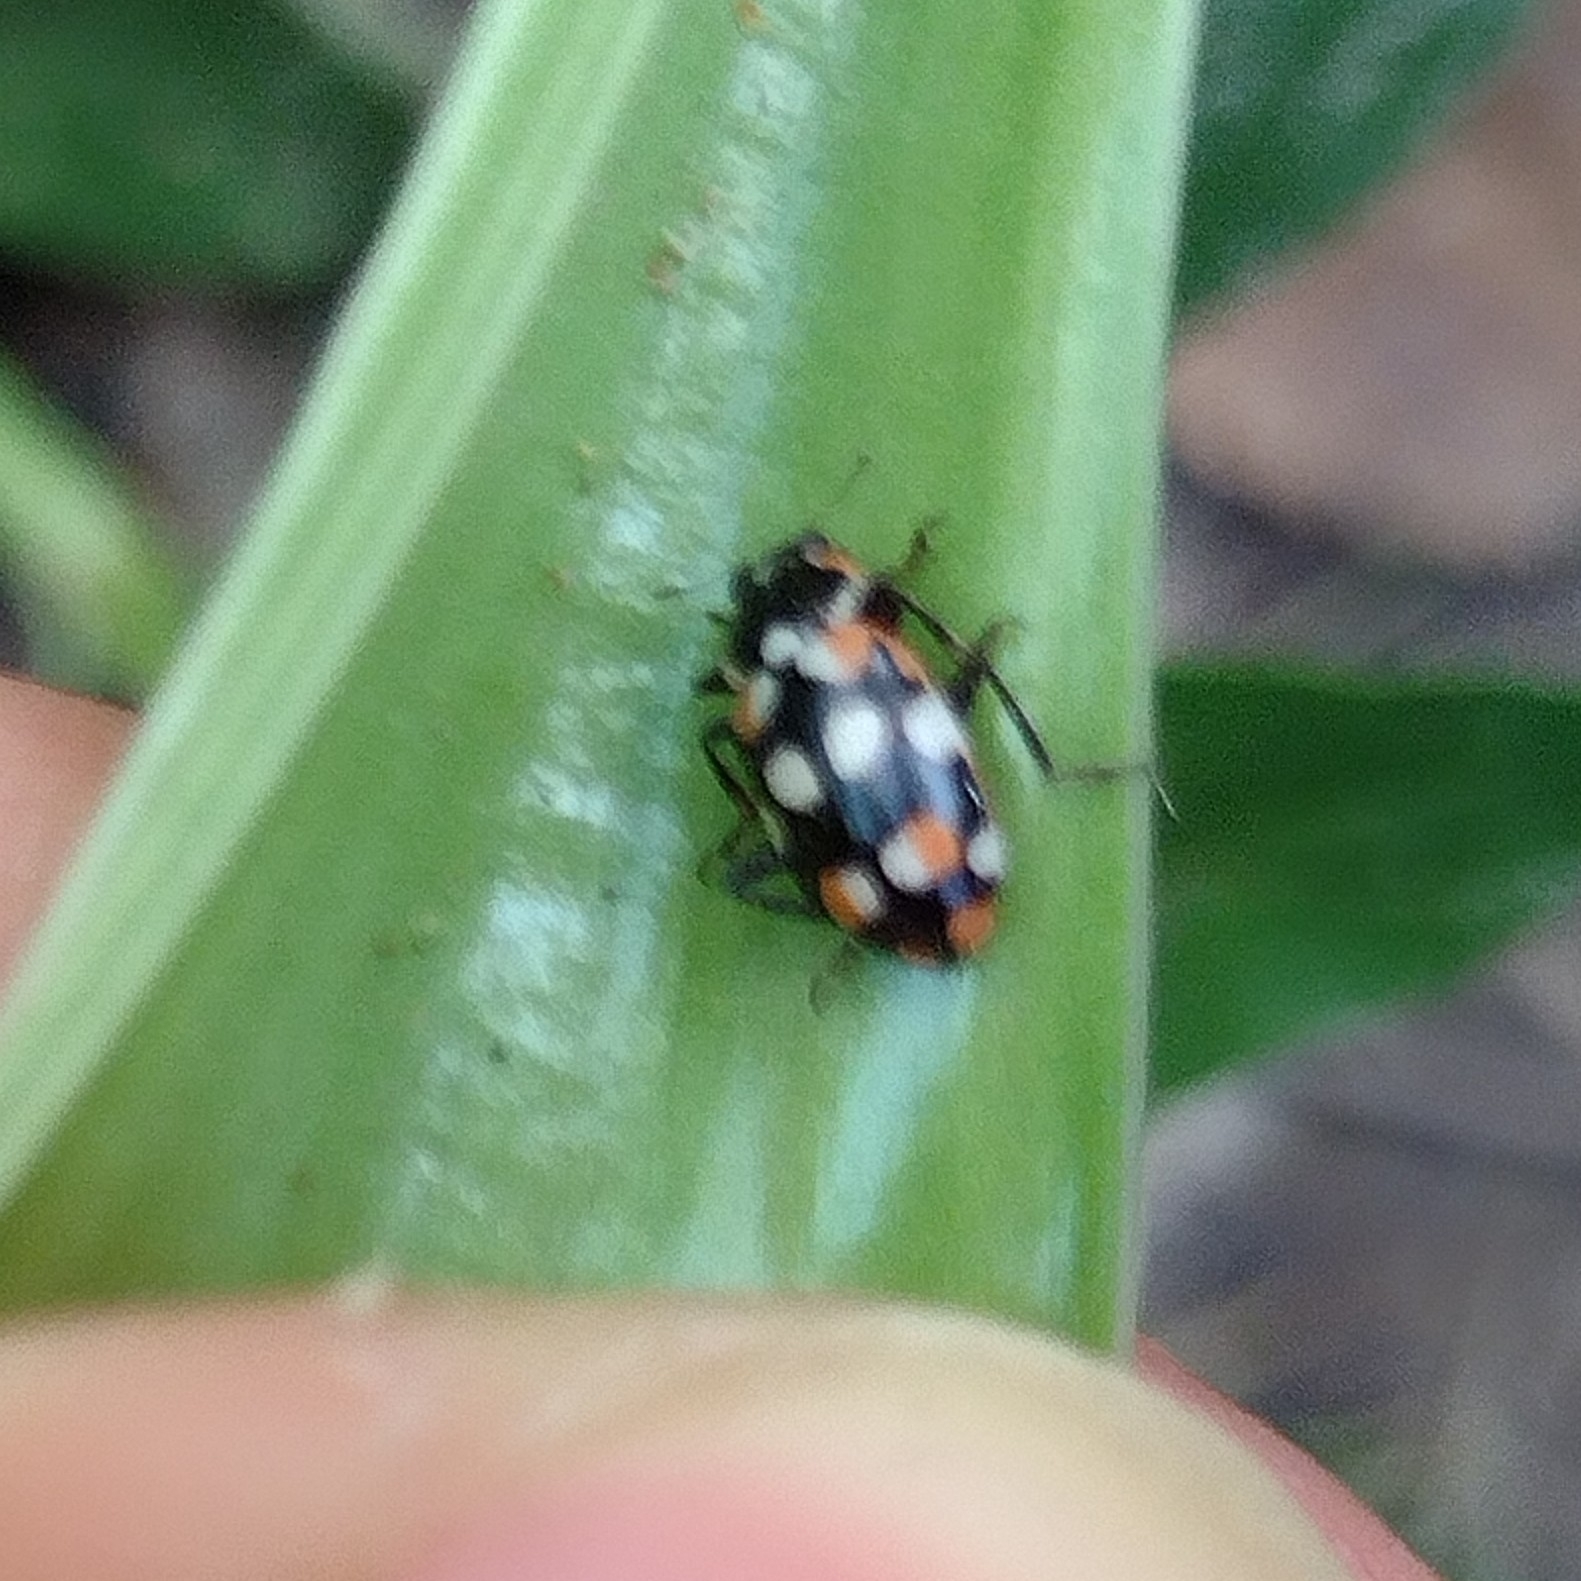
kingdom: Animalia
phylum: Arthropoda
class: Insecta
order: Coleoptera
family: Coccinellidae
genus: Eriopis
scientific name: Eriopis connexa
